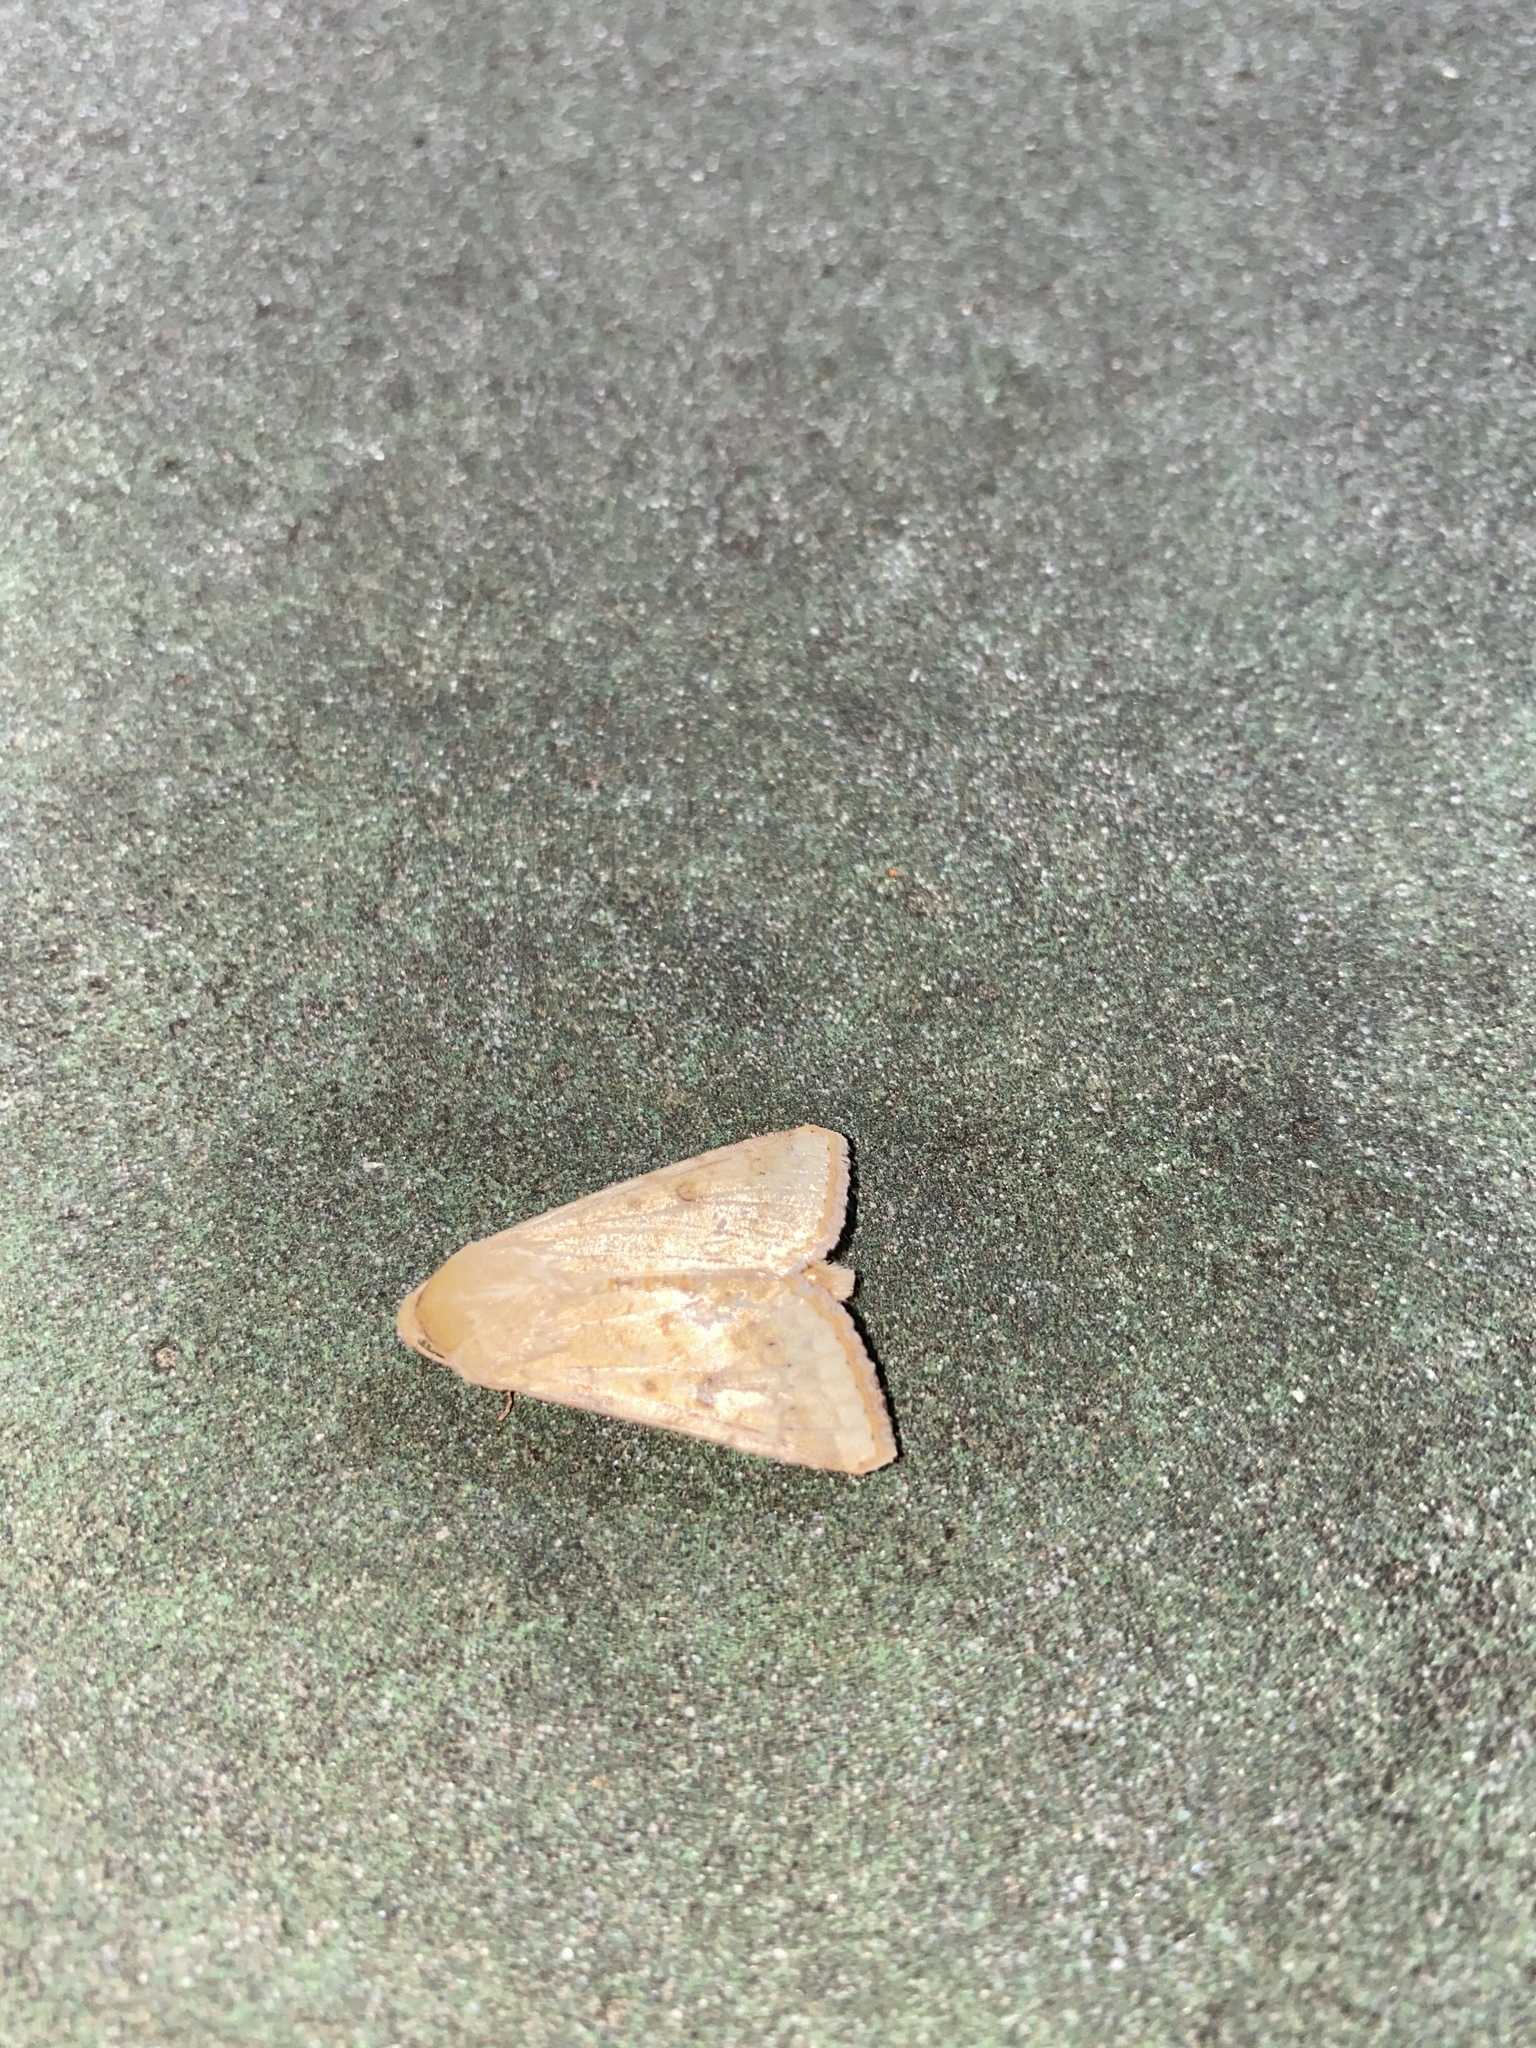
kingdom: Animalia
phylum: Arthropoda
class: Insecta
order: Lepidoptera
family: Noctuidae
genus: Helicoverpa
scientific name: Helicoverpa zea
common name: Bollworm
